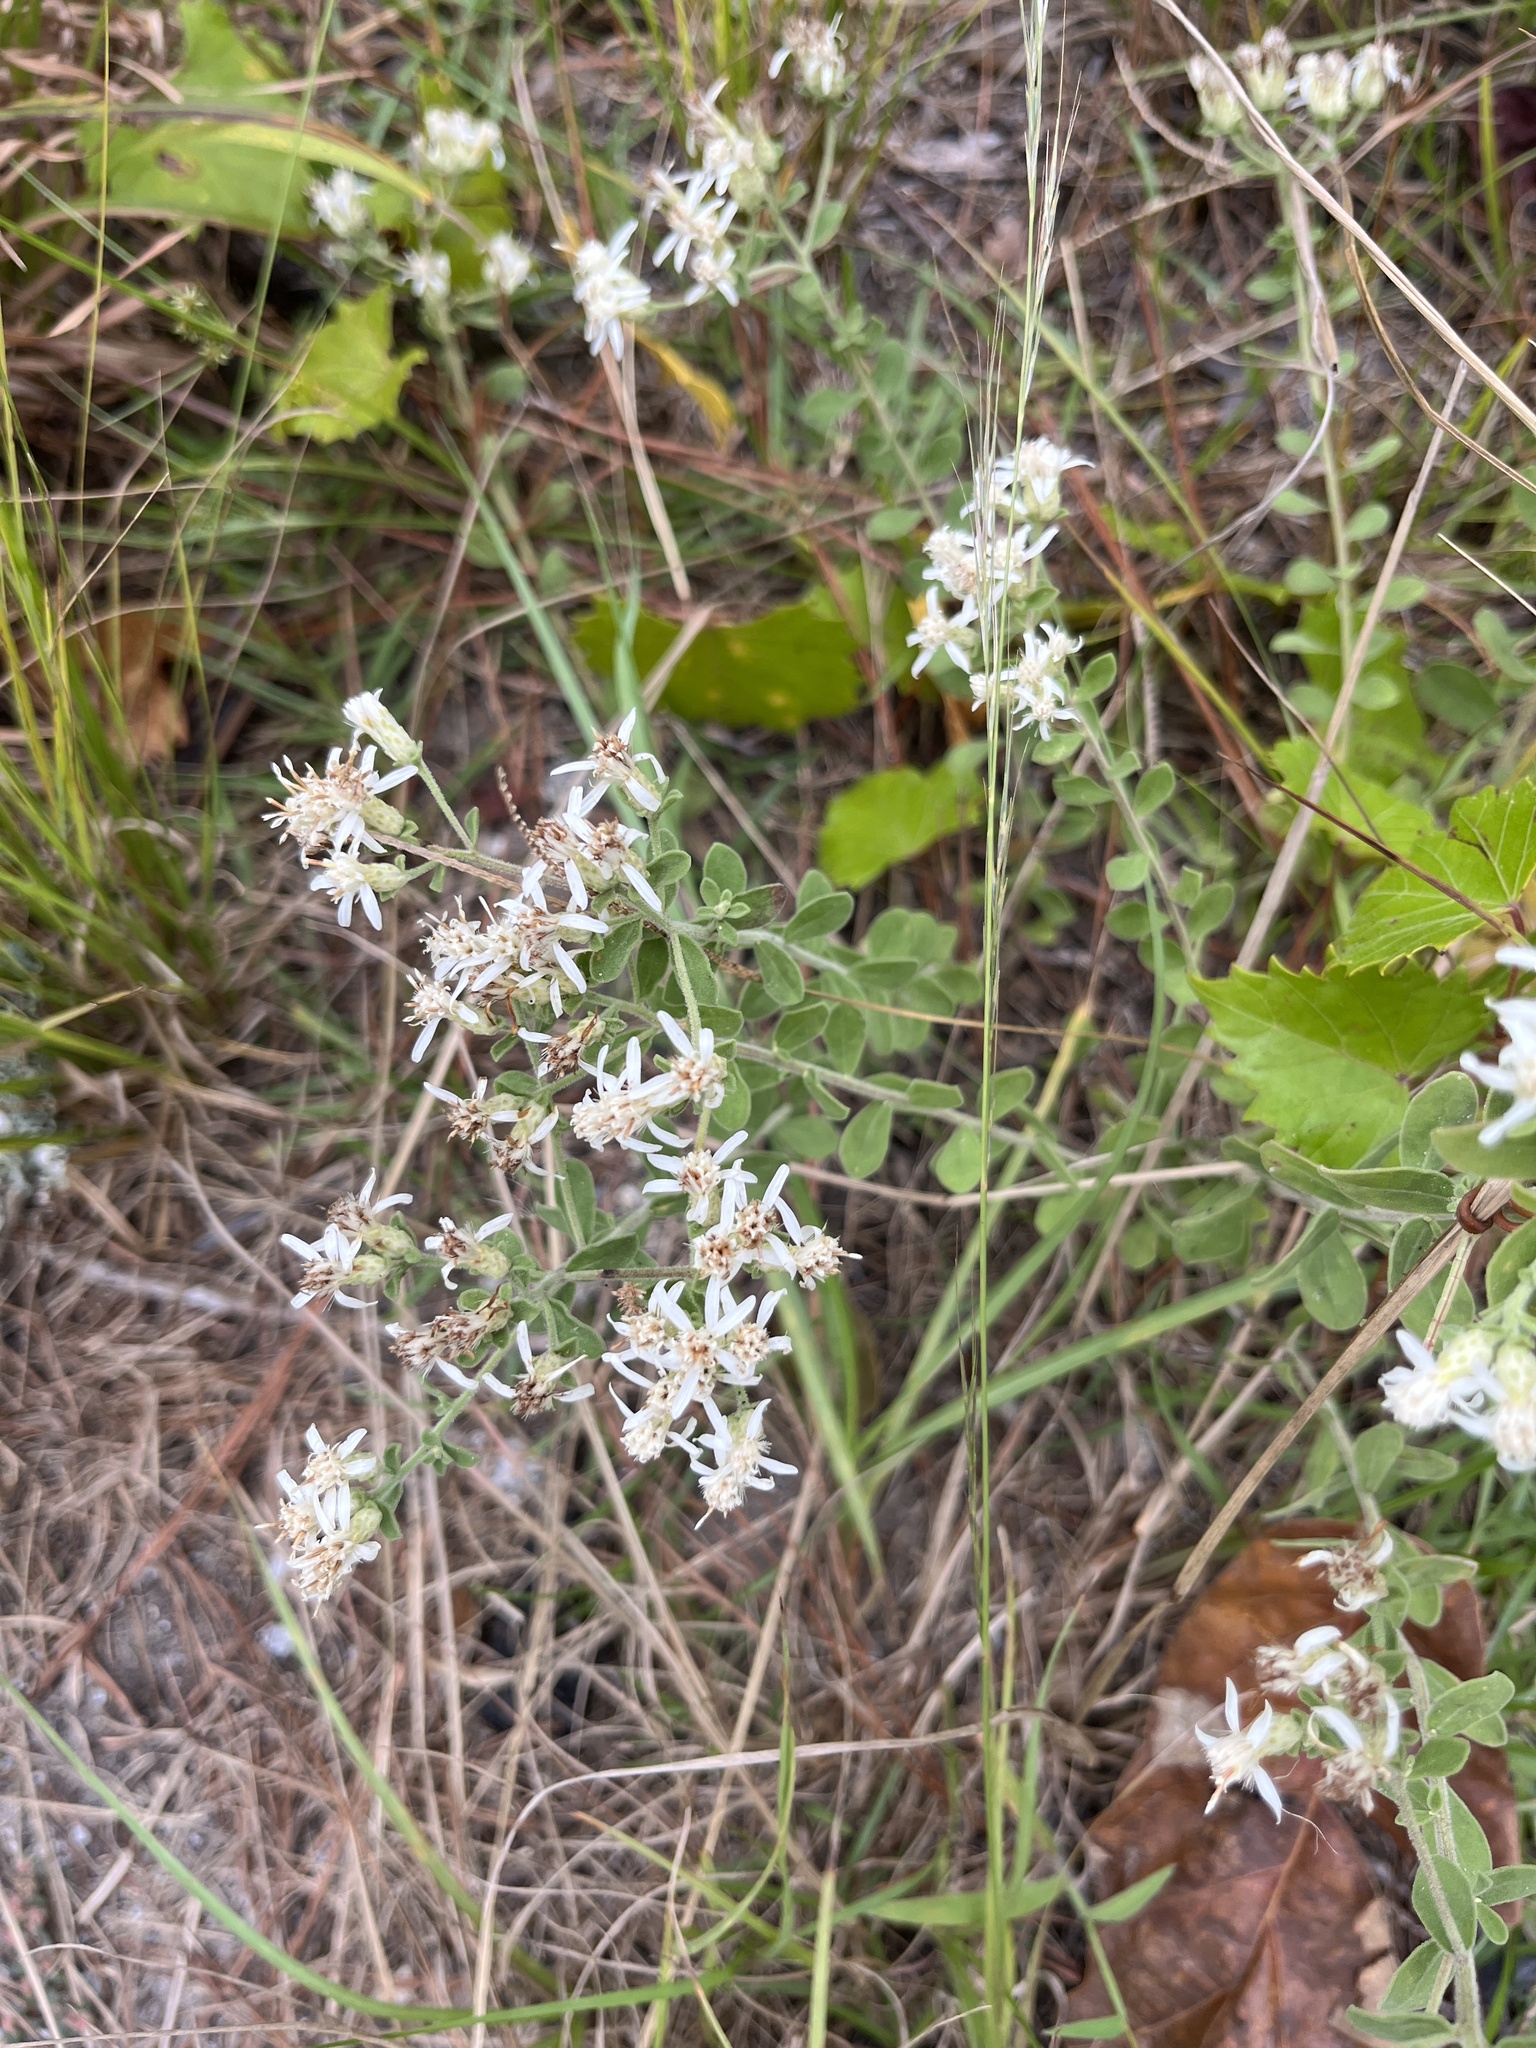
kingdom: Plantae
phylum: Tracheophyta
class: Magnoliopsida
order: Asterales
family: Asteraceae
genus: Sericocarpus
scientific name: Sericocarpus tortifolius
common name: Dixie aster
